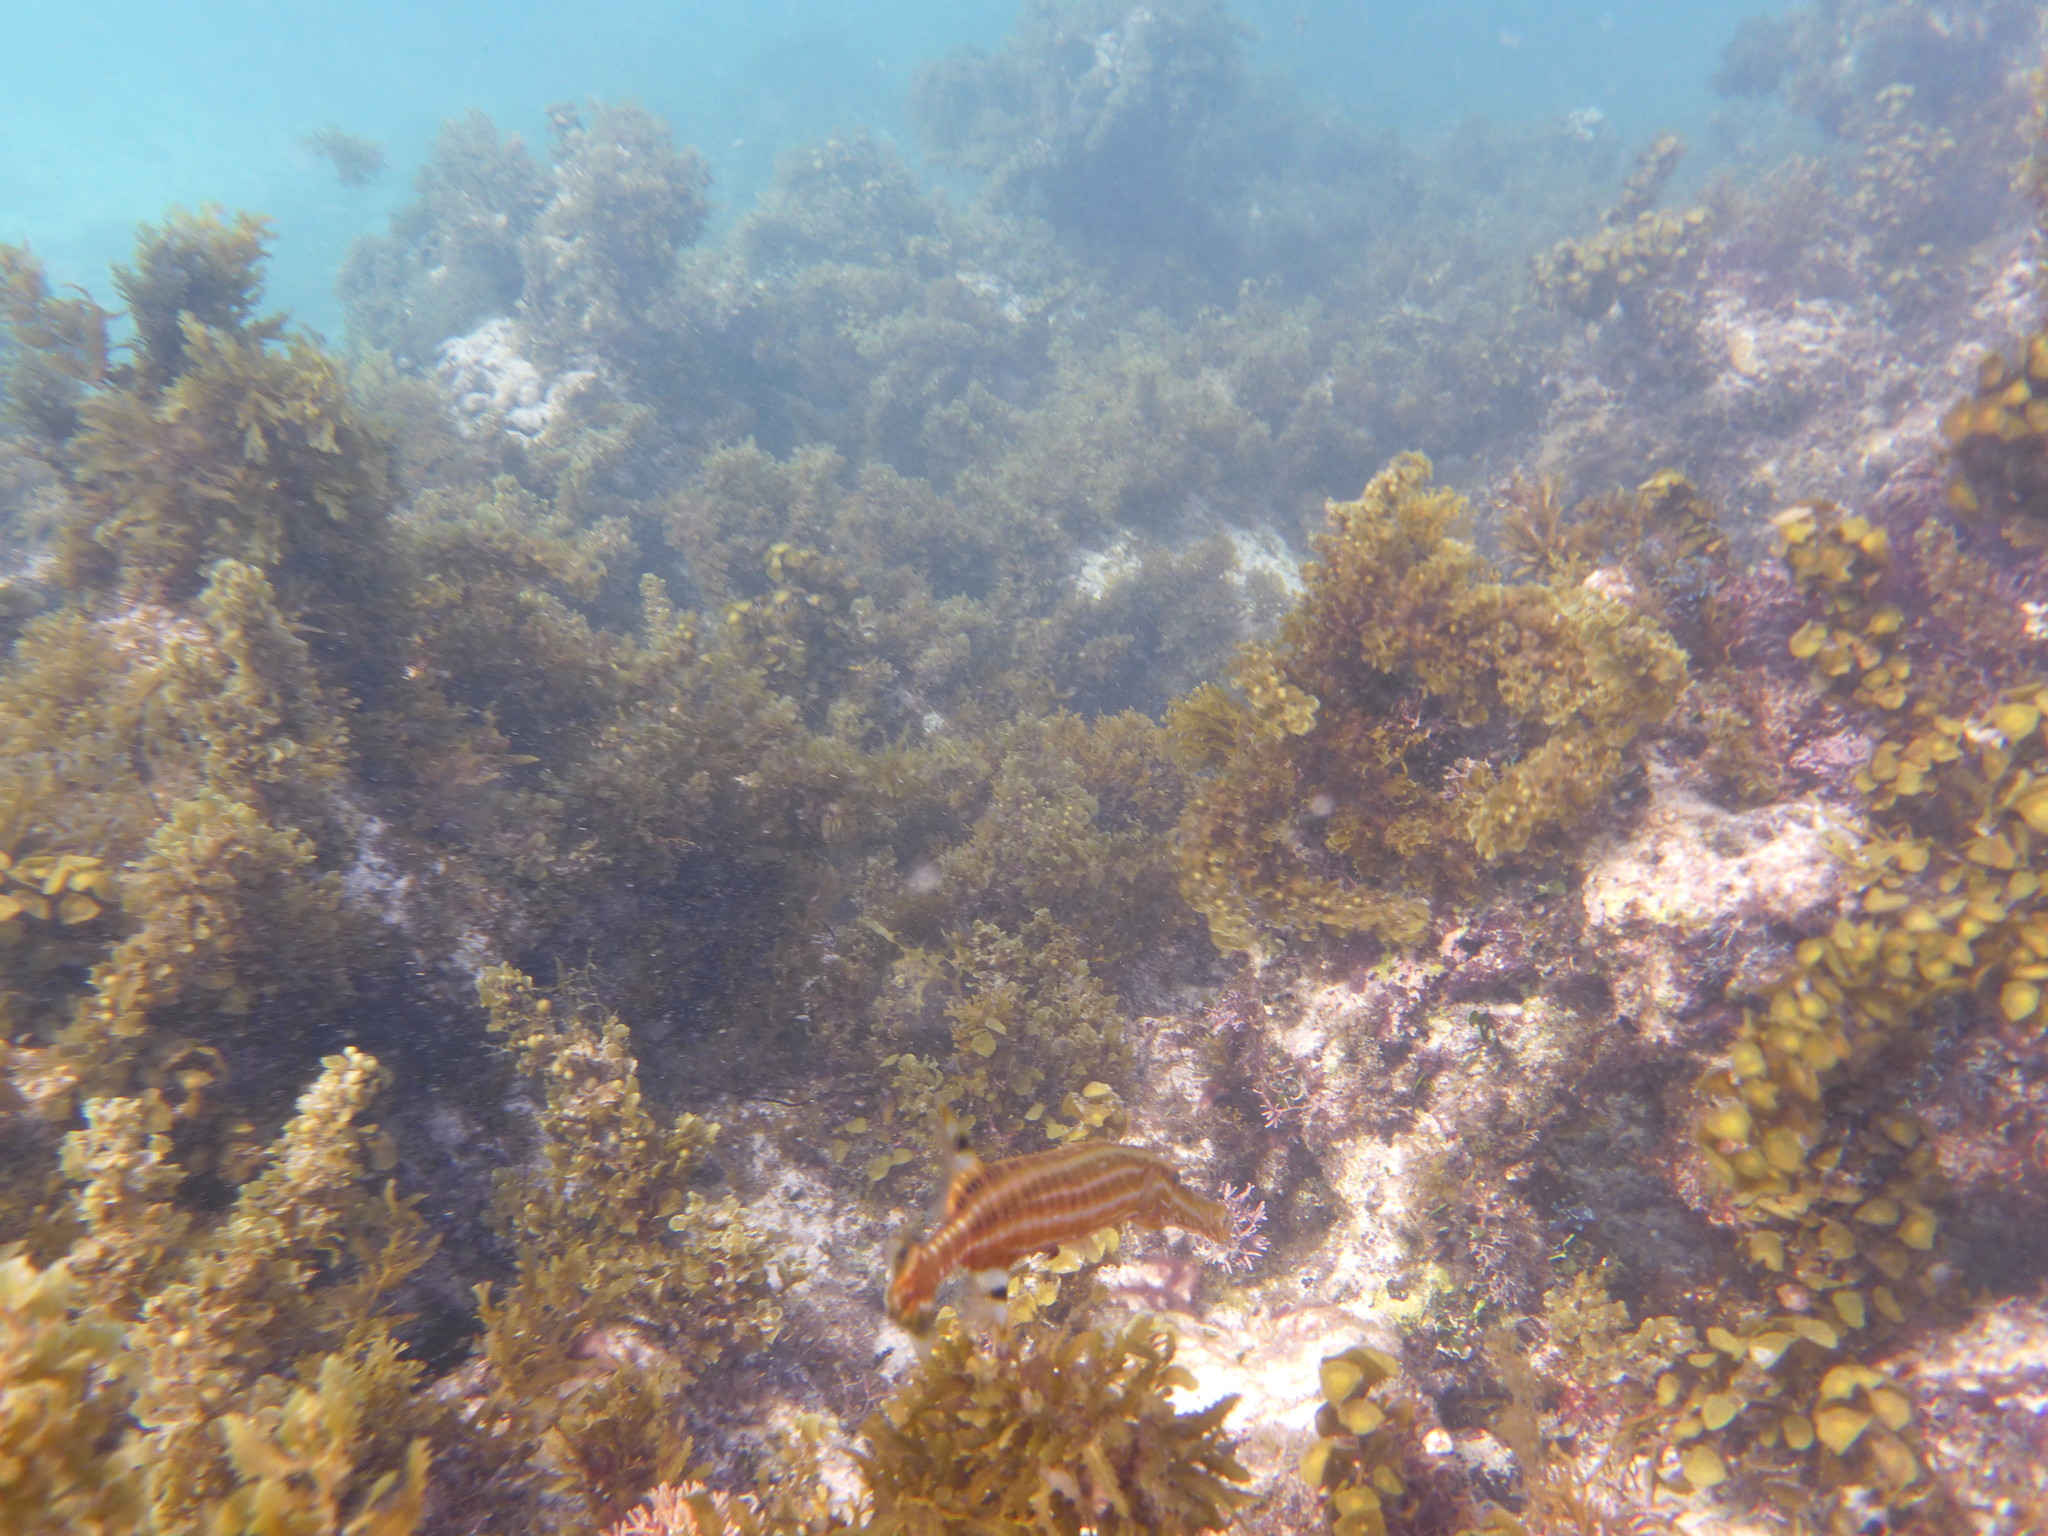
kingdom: Animalia
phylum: Chordata
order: Syngnathiformes
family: Aulostomidae
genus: Aulostomus
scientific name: Aulostomus maculatus
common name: West atlantic trumpetfish
